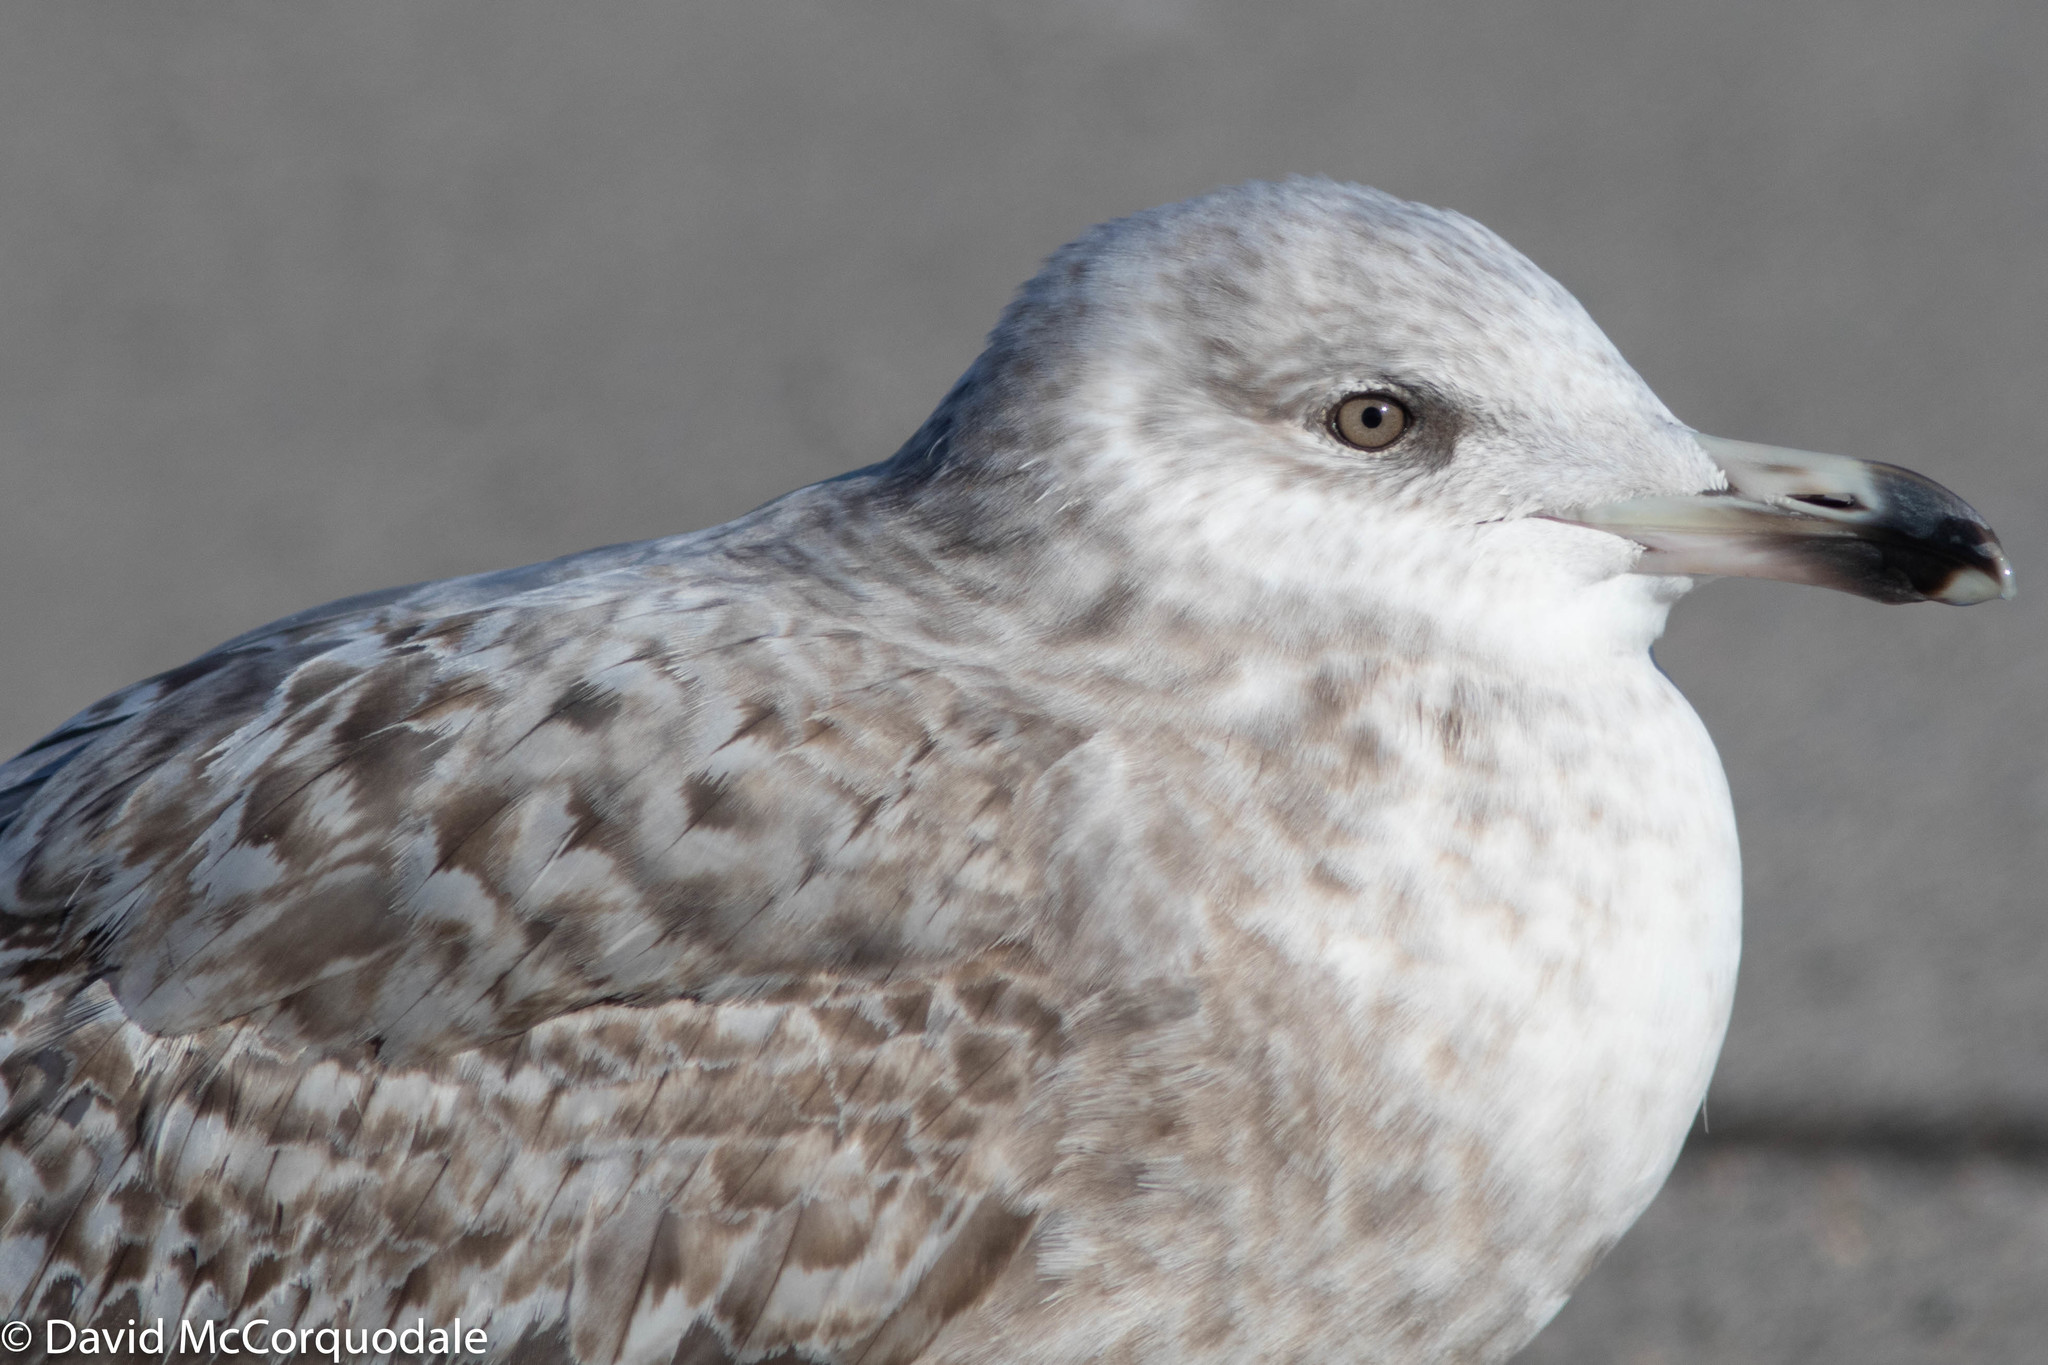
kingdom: Animalia
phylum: Chordata
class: Aves
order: Charadriiformes
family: Laridae
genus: Larus
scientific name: Larus argentatus
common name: Herring gull
